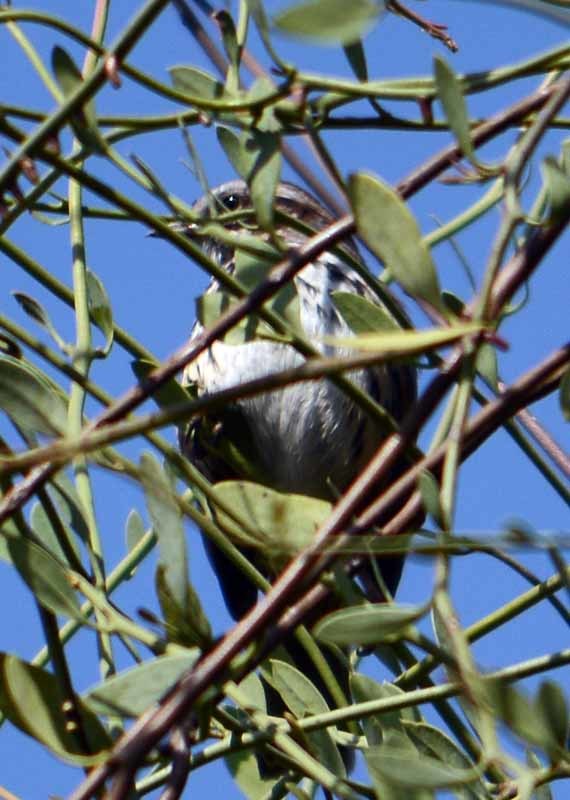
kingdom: Animalia
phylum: Chordata
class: Aves
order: Passeriformes
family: Passerellidae
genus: Melospiza
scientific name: Melospiza melodia
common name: Song sparrow
